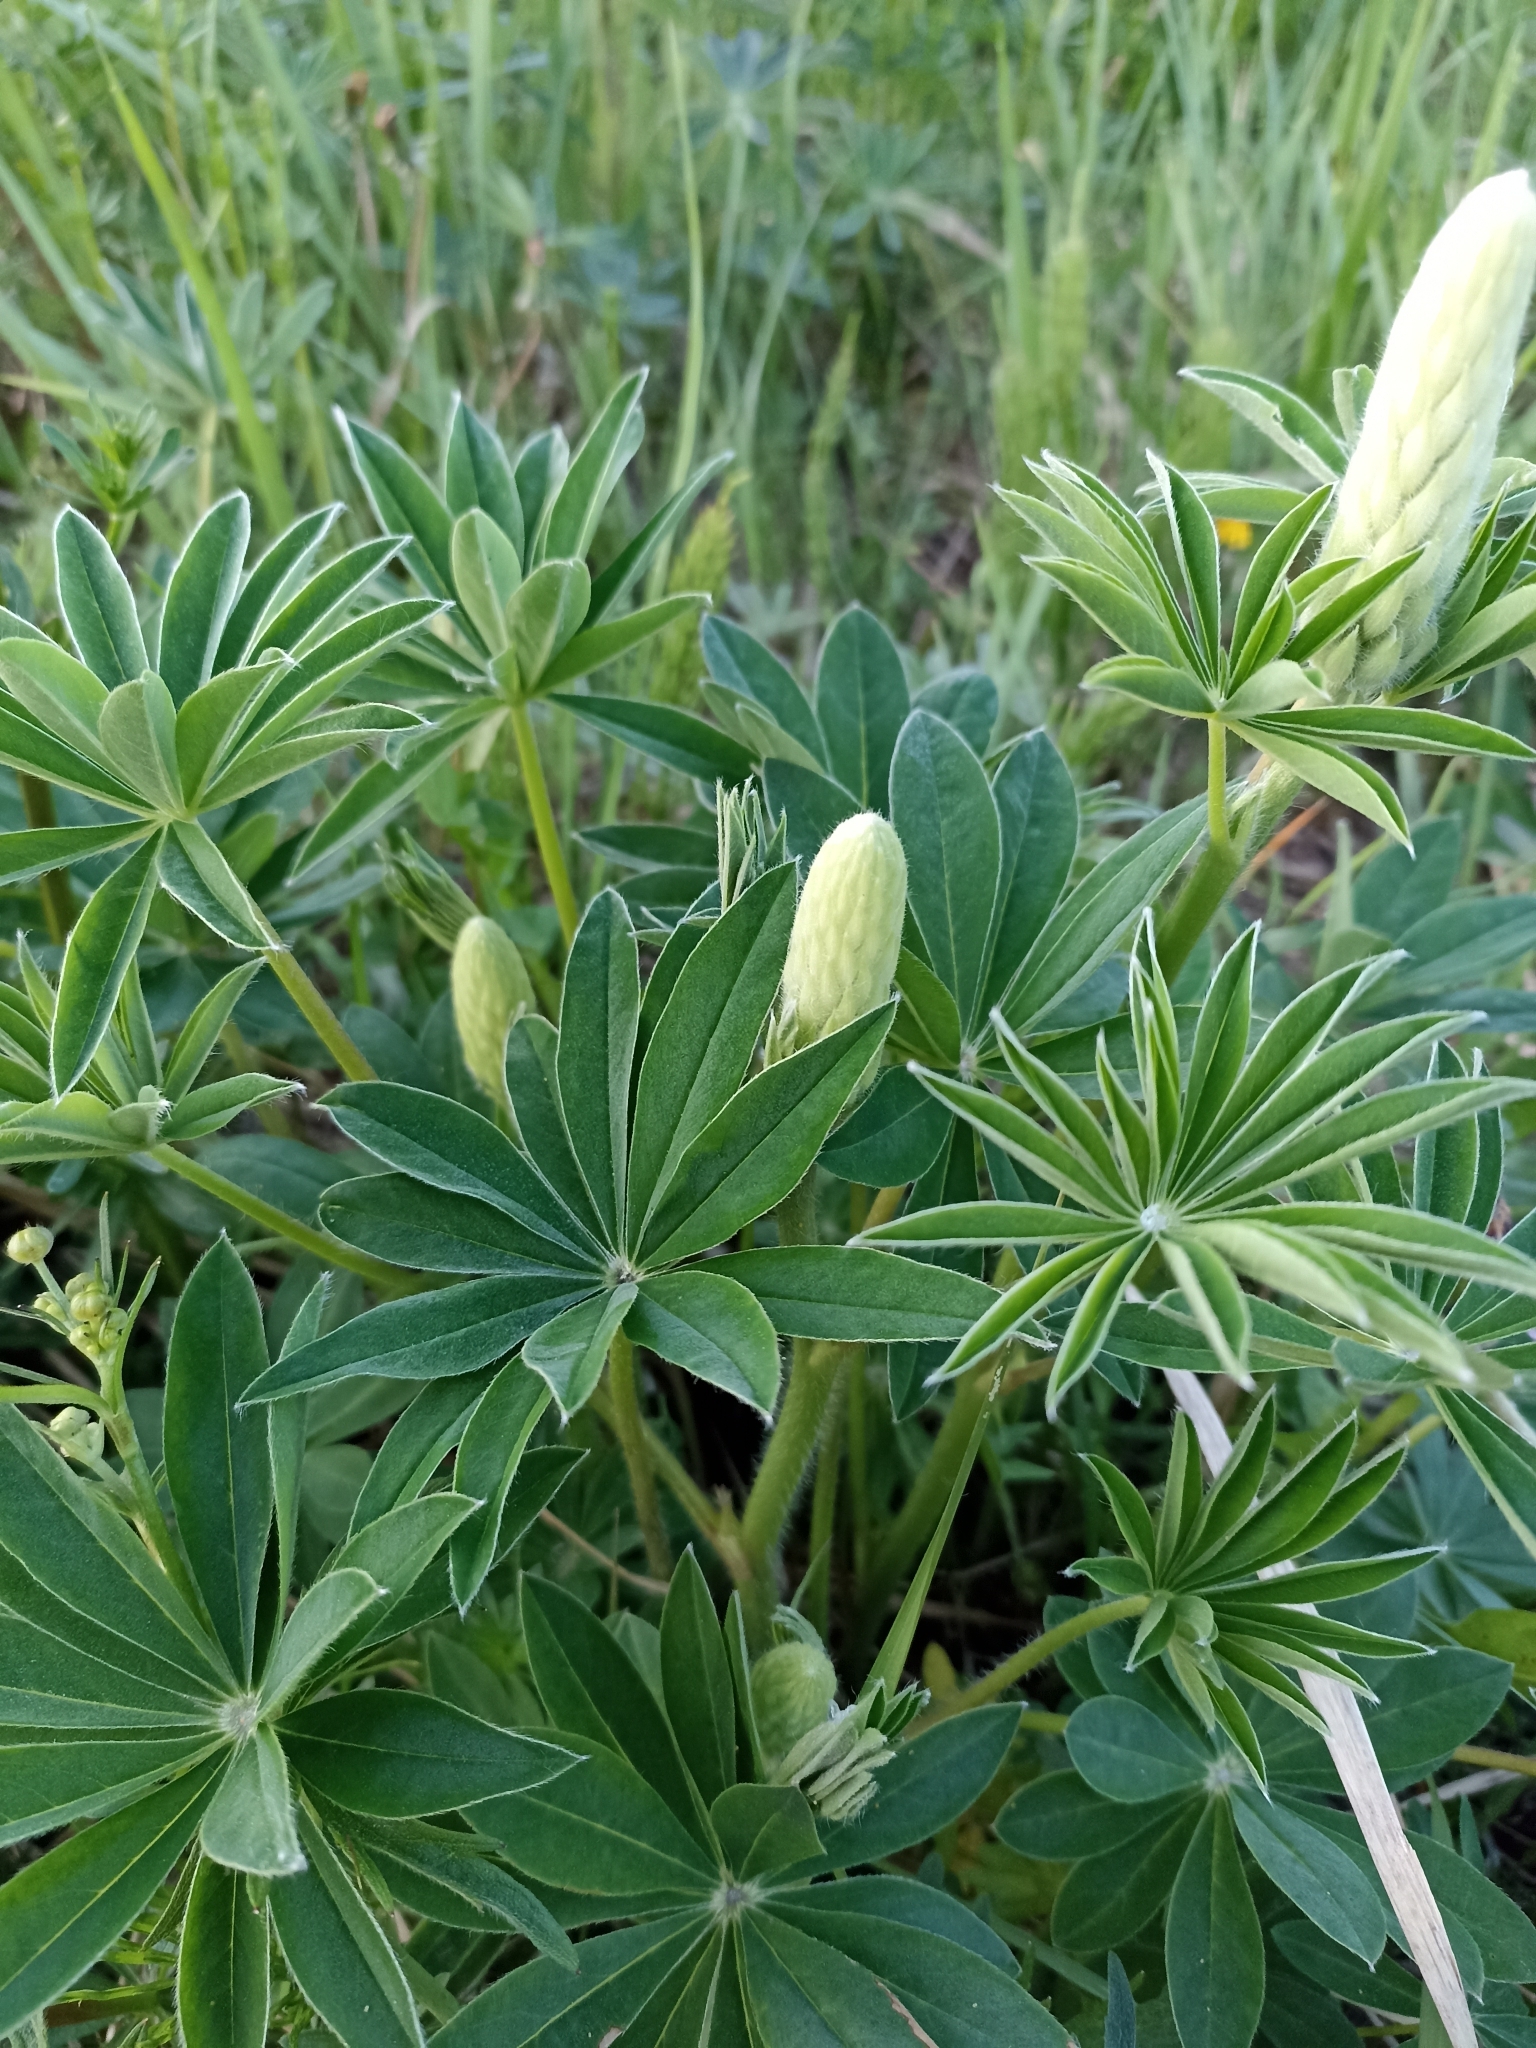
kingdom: Plantae
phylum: Tracheophyta
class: Magnoliopsida
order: Fabales
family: Fabaceae
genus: Lupinus
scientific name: Lupinus polyphyllus
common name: Garden lupin
